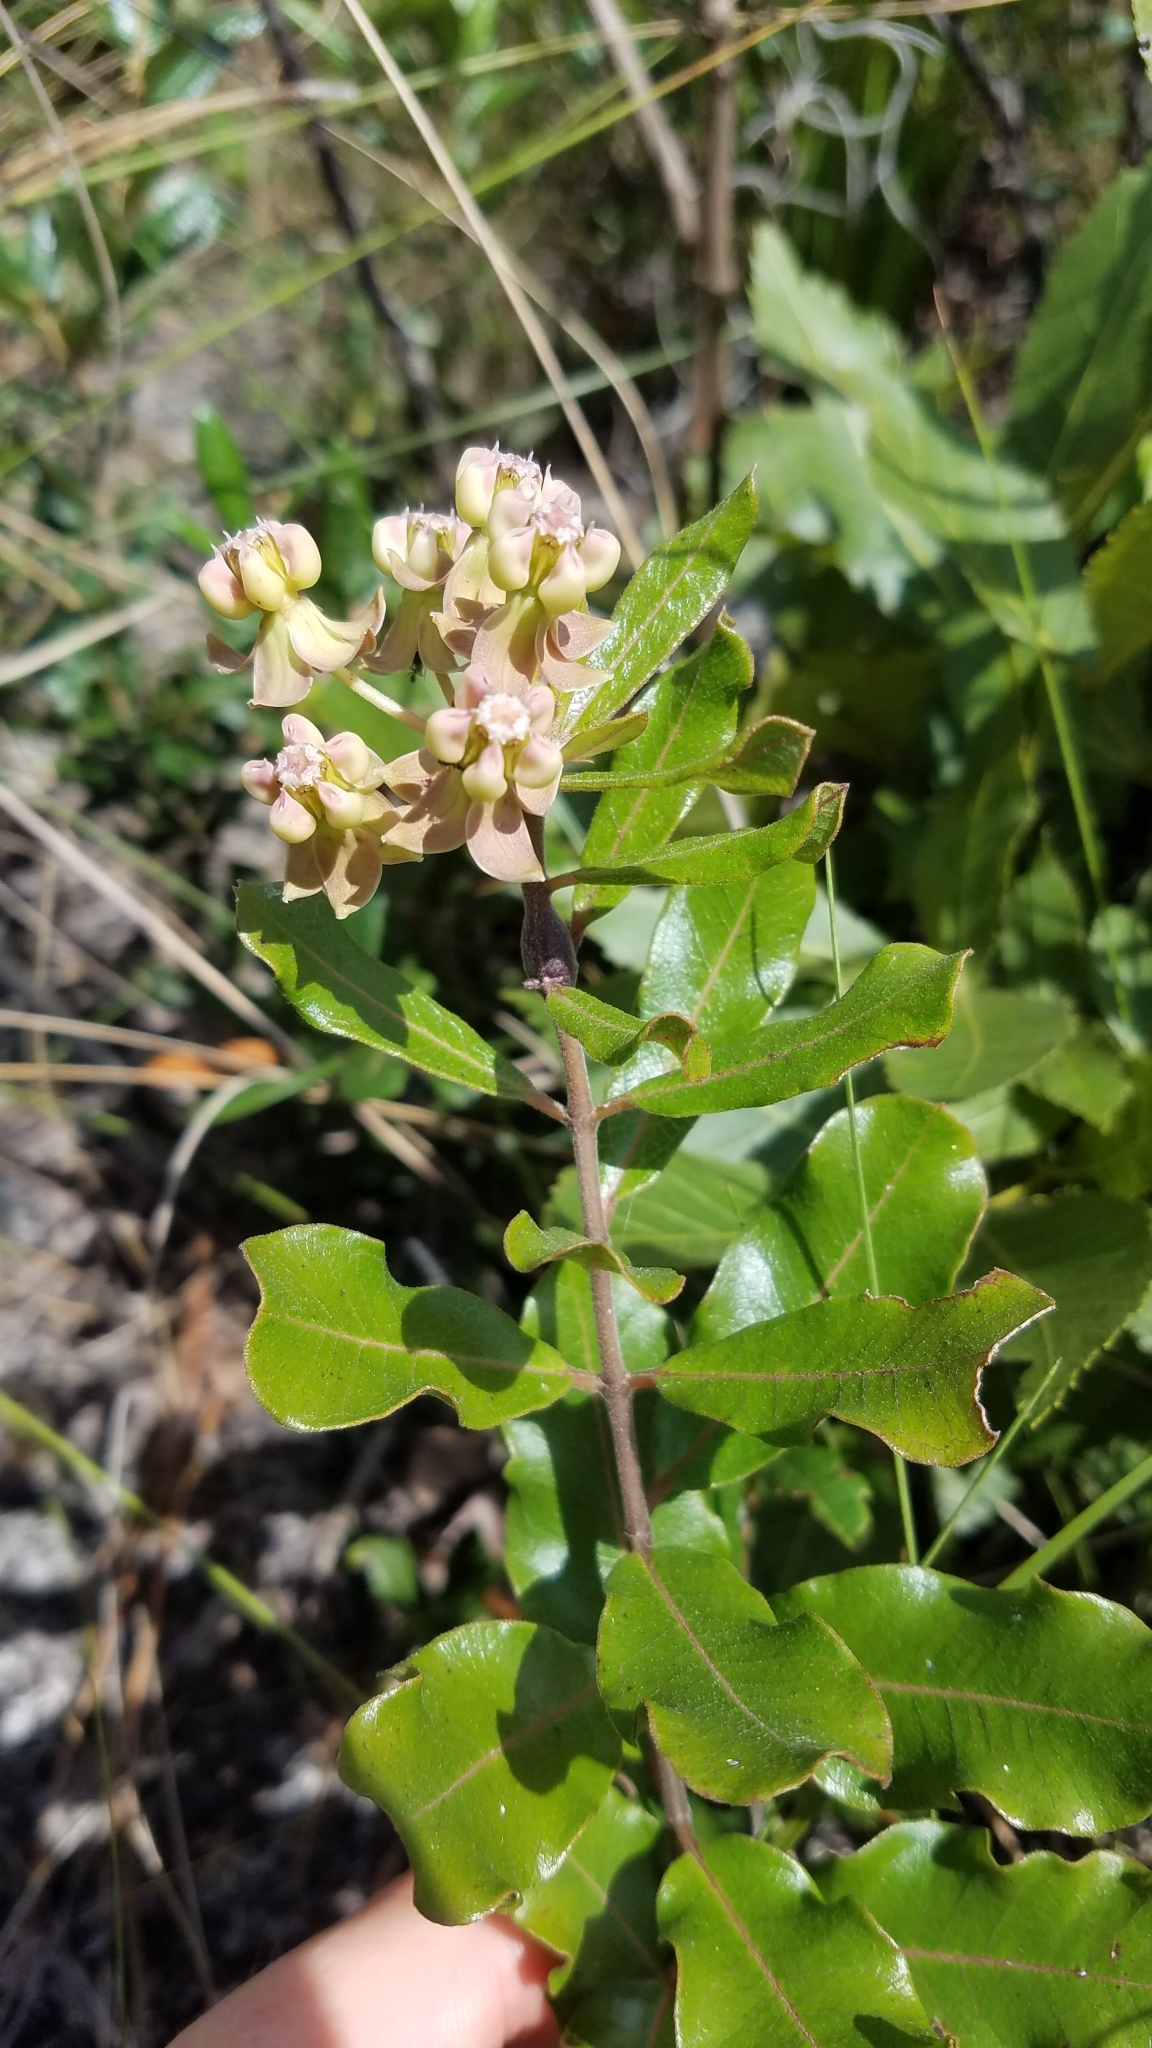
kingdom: Plantae
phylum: Tracheophyta
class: Magnoliopsida
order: Gentianales
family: Apocynaceae
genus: Asclepias
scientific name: Asclepias tomentosa
